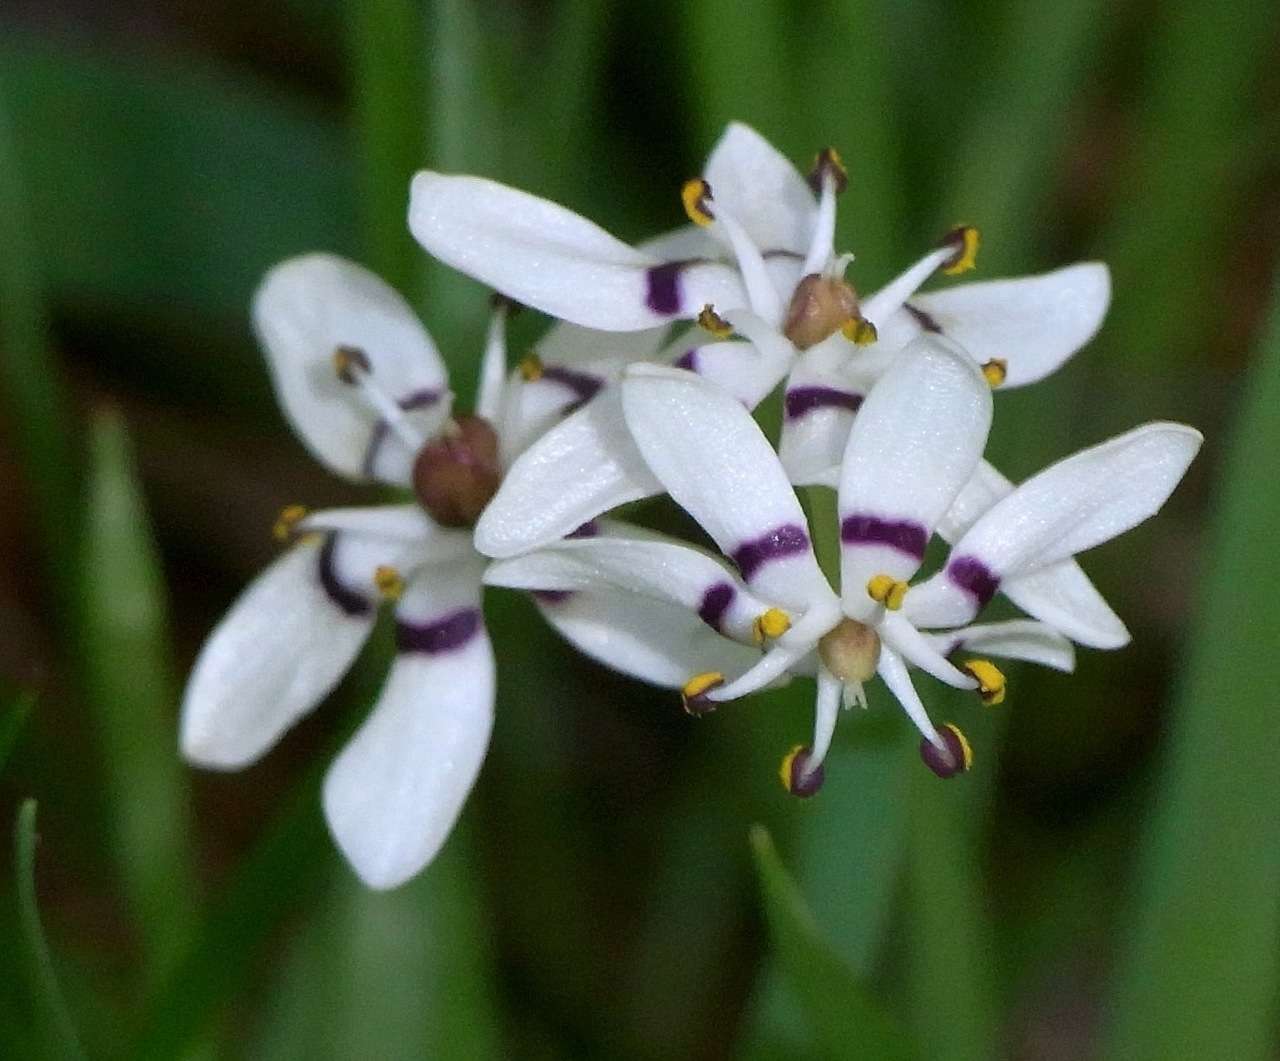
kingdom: Plantae
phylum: Tracheophyta
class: Liliopsida
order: Liliales
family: Colchicaceae
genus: Wurmbea
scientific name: Wurmbea dioica
